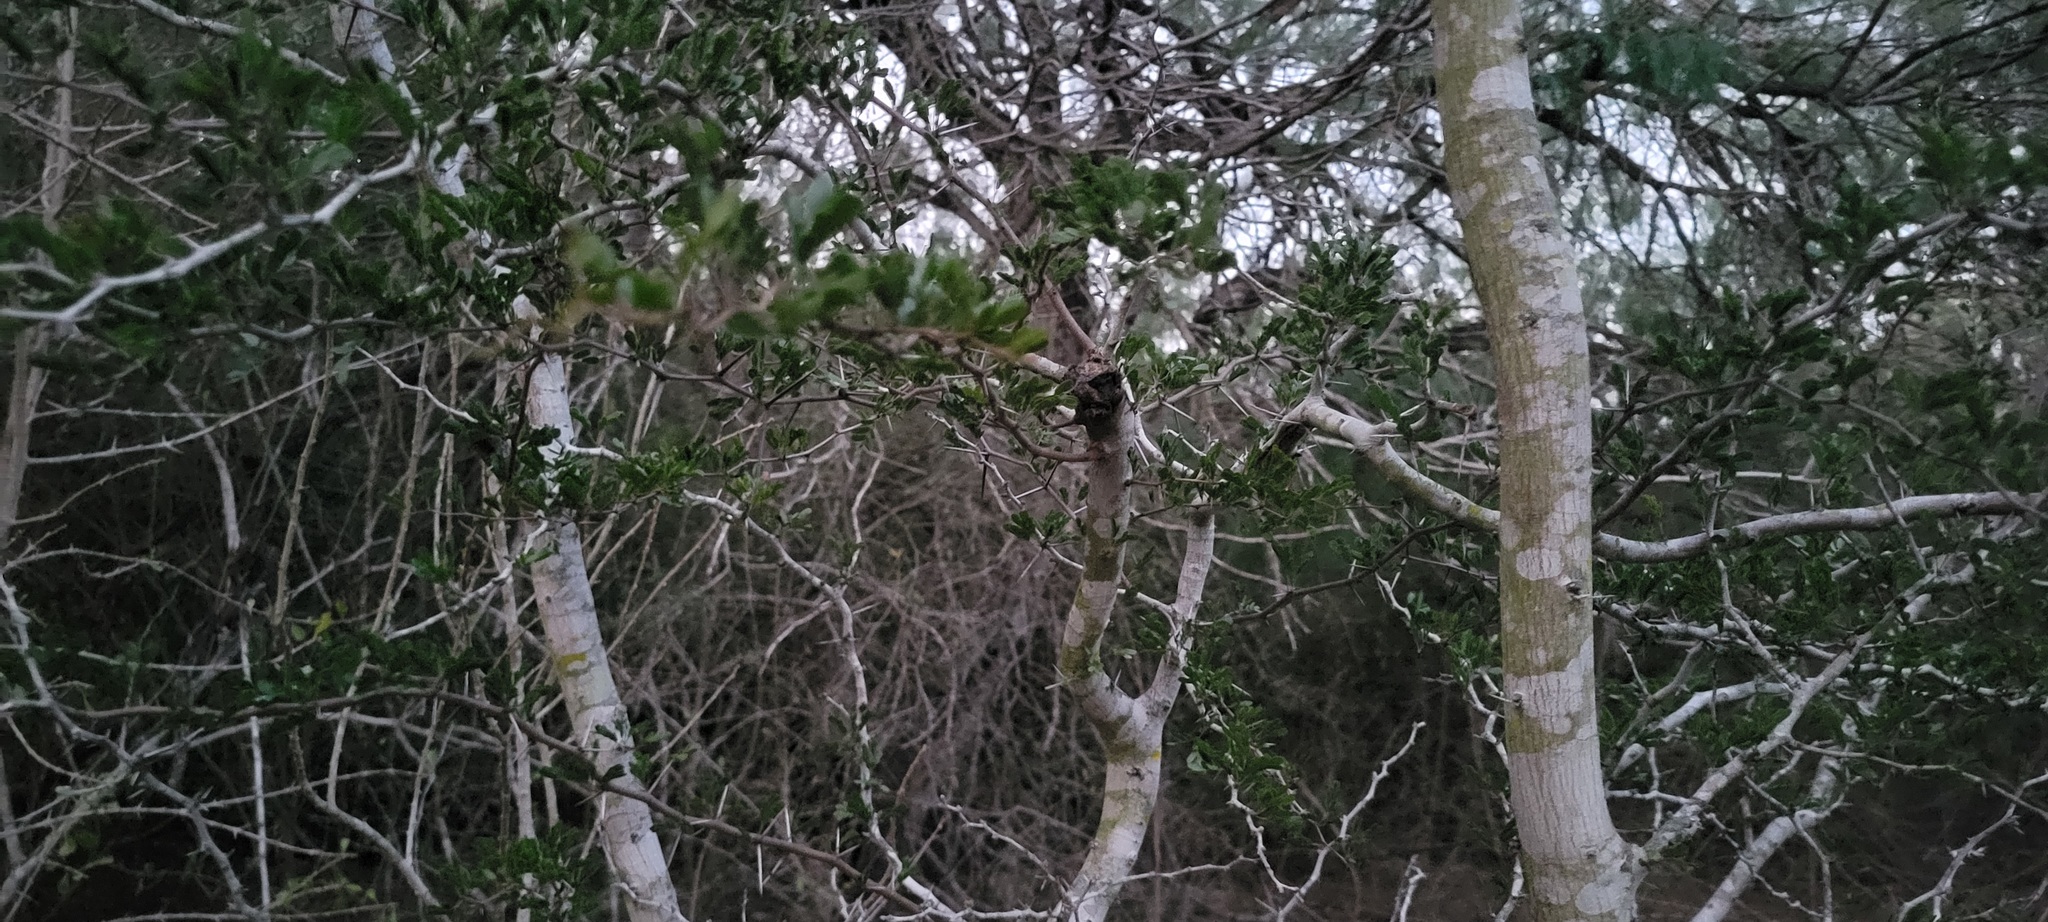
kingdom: Plantae
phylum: Tracheophyta
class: Magnoliopsida
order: Fabales
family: Fabaceae
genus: Vachellia
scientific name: Vachellia rigidula
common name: Blackbrush
